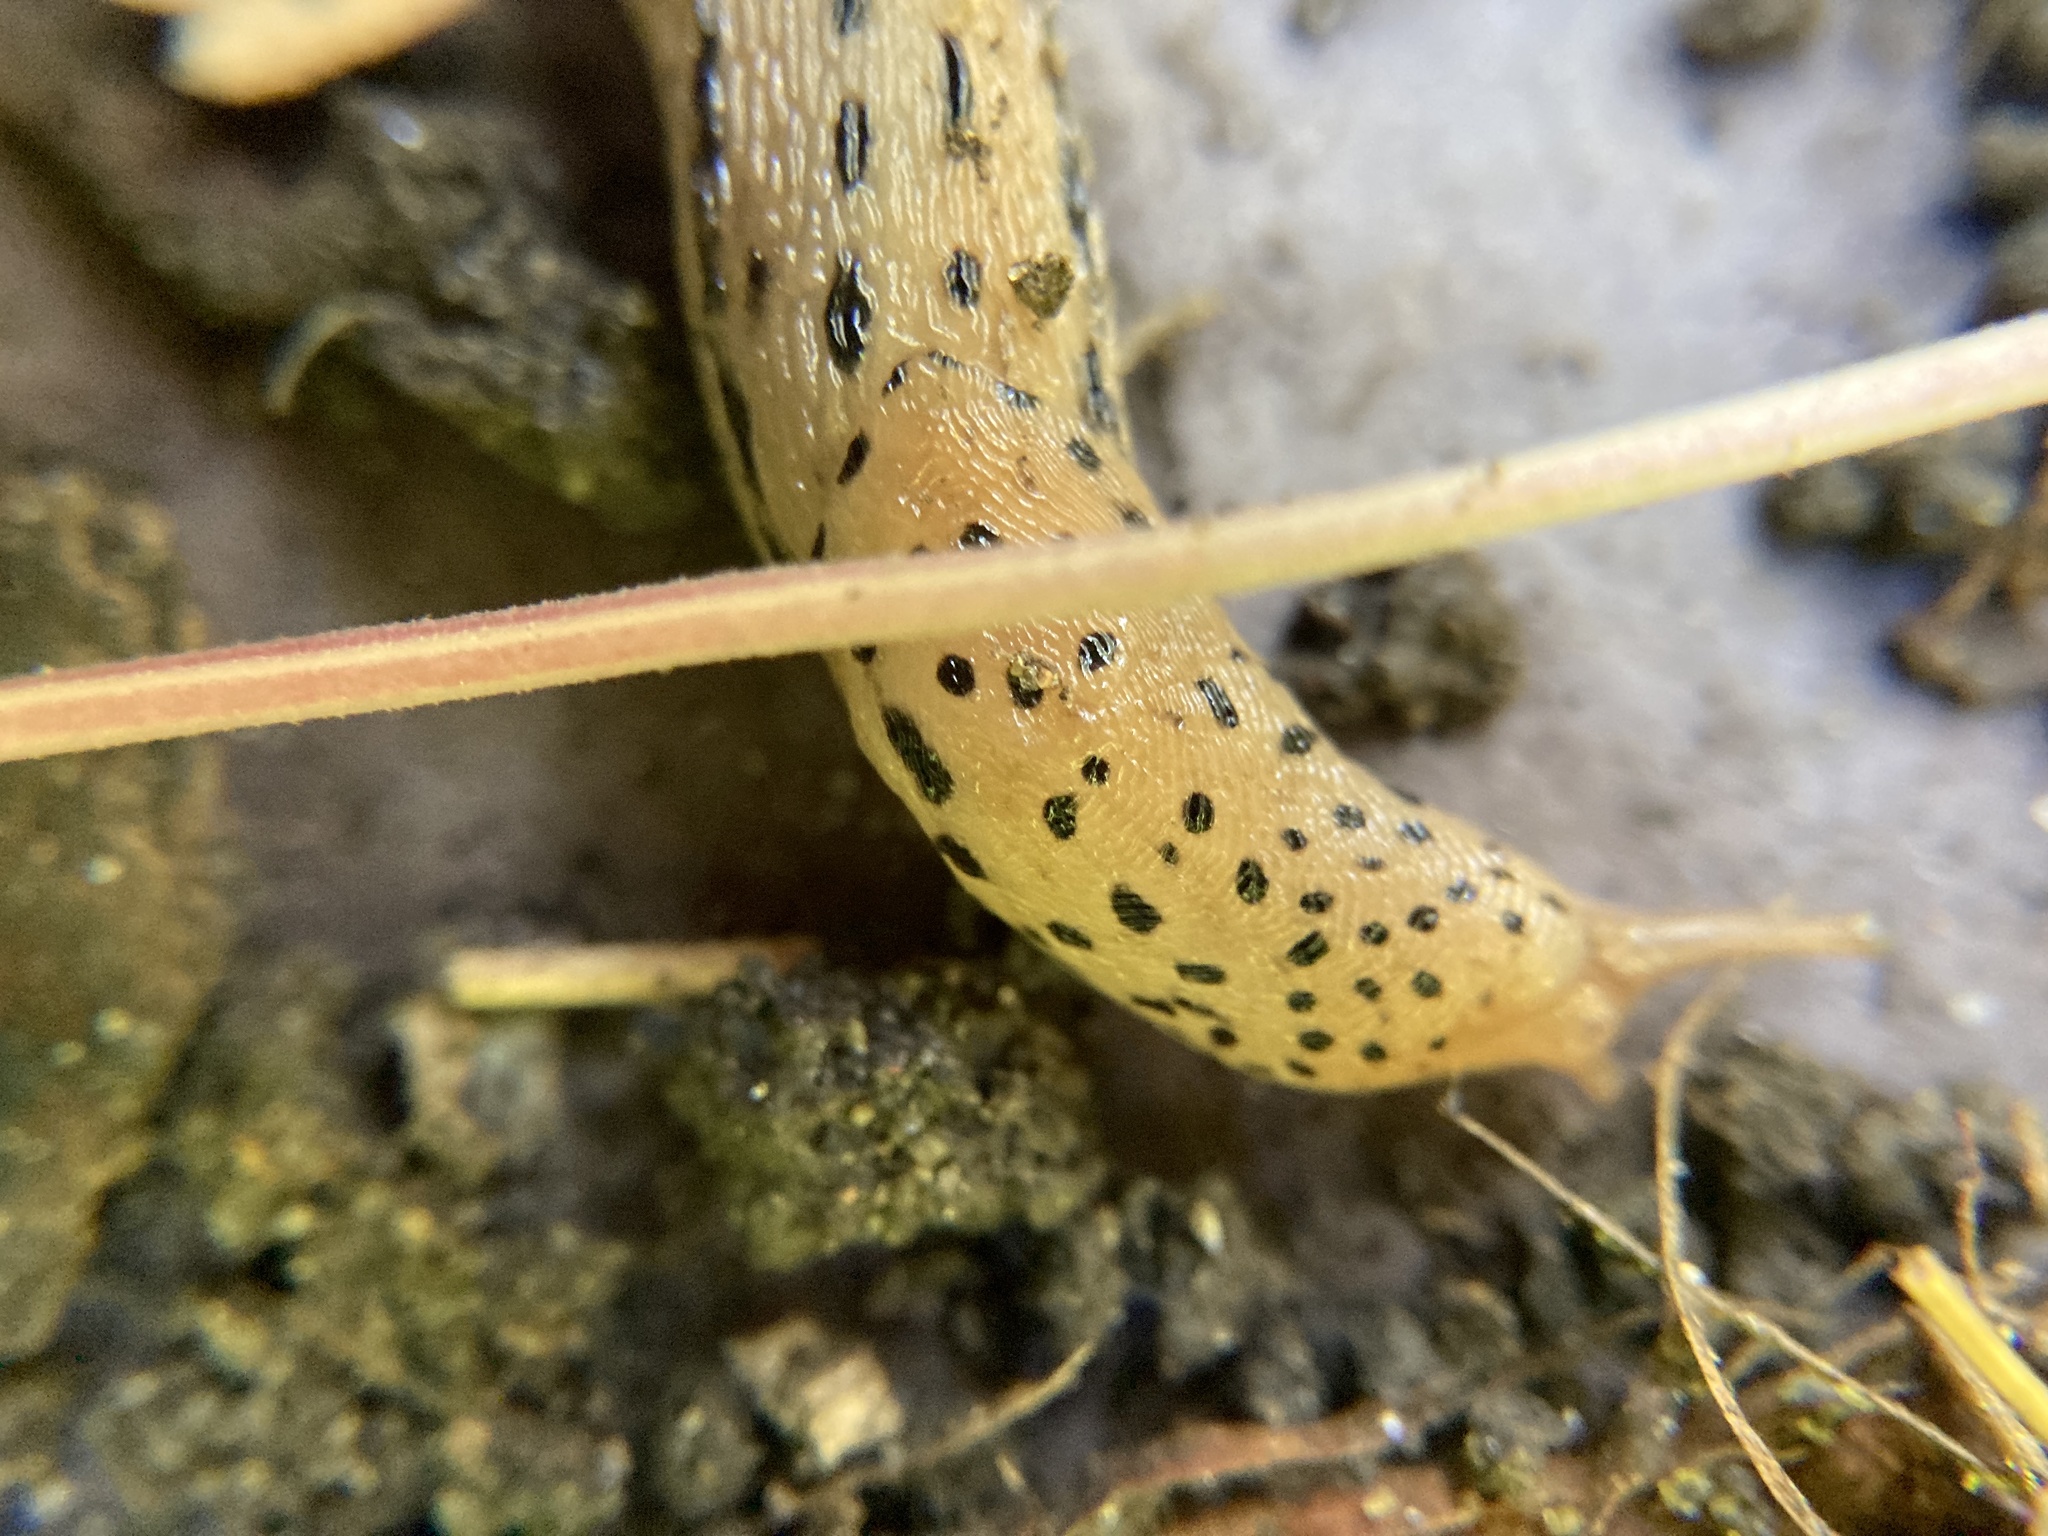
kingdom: Animalia
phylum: Mollusca
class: Gastropoda
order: Stylommatophora
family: Limacidae
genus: Limax
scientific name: Limax maximus
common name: Great grey slug
